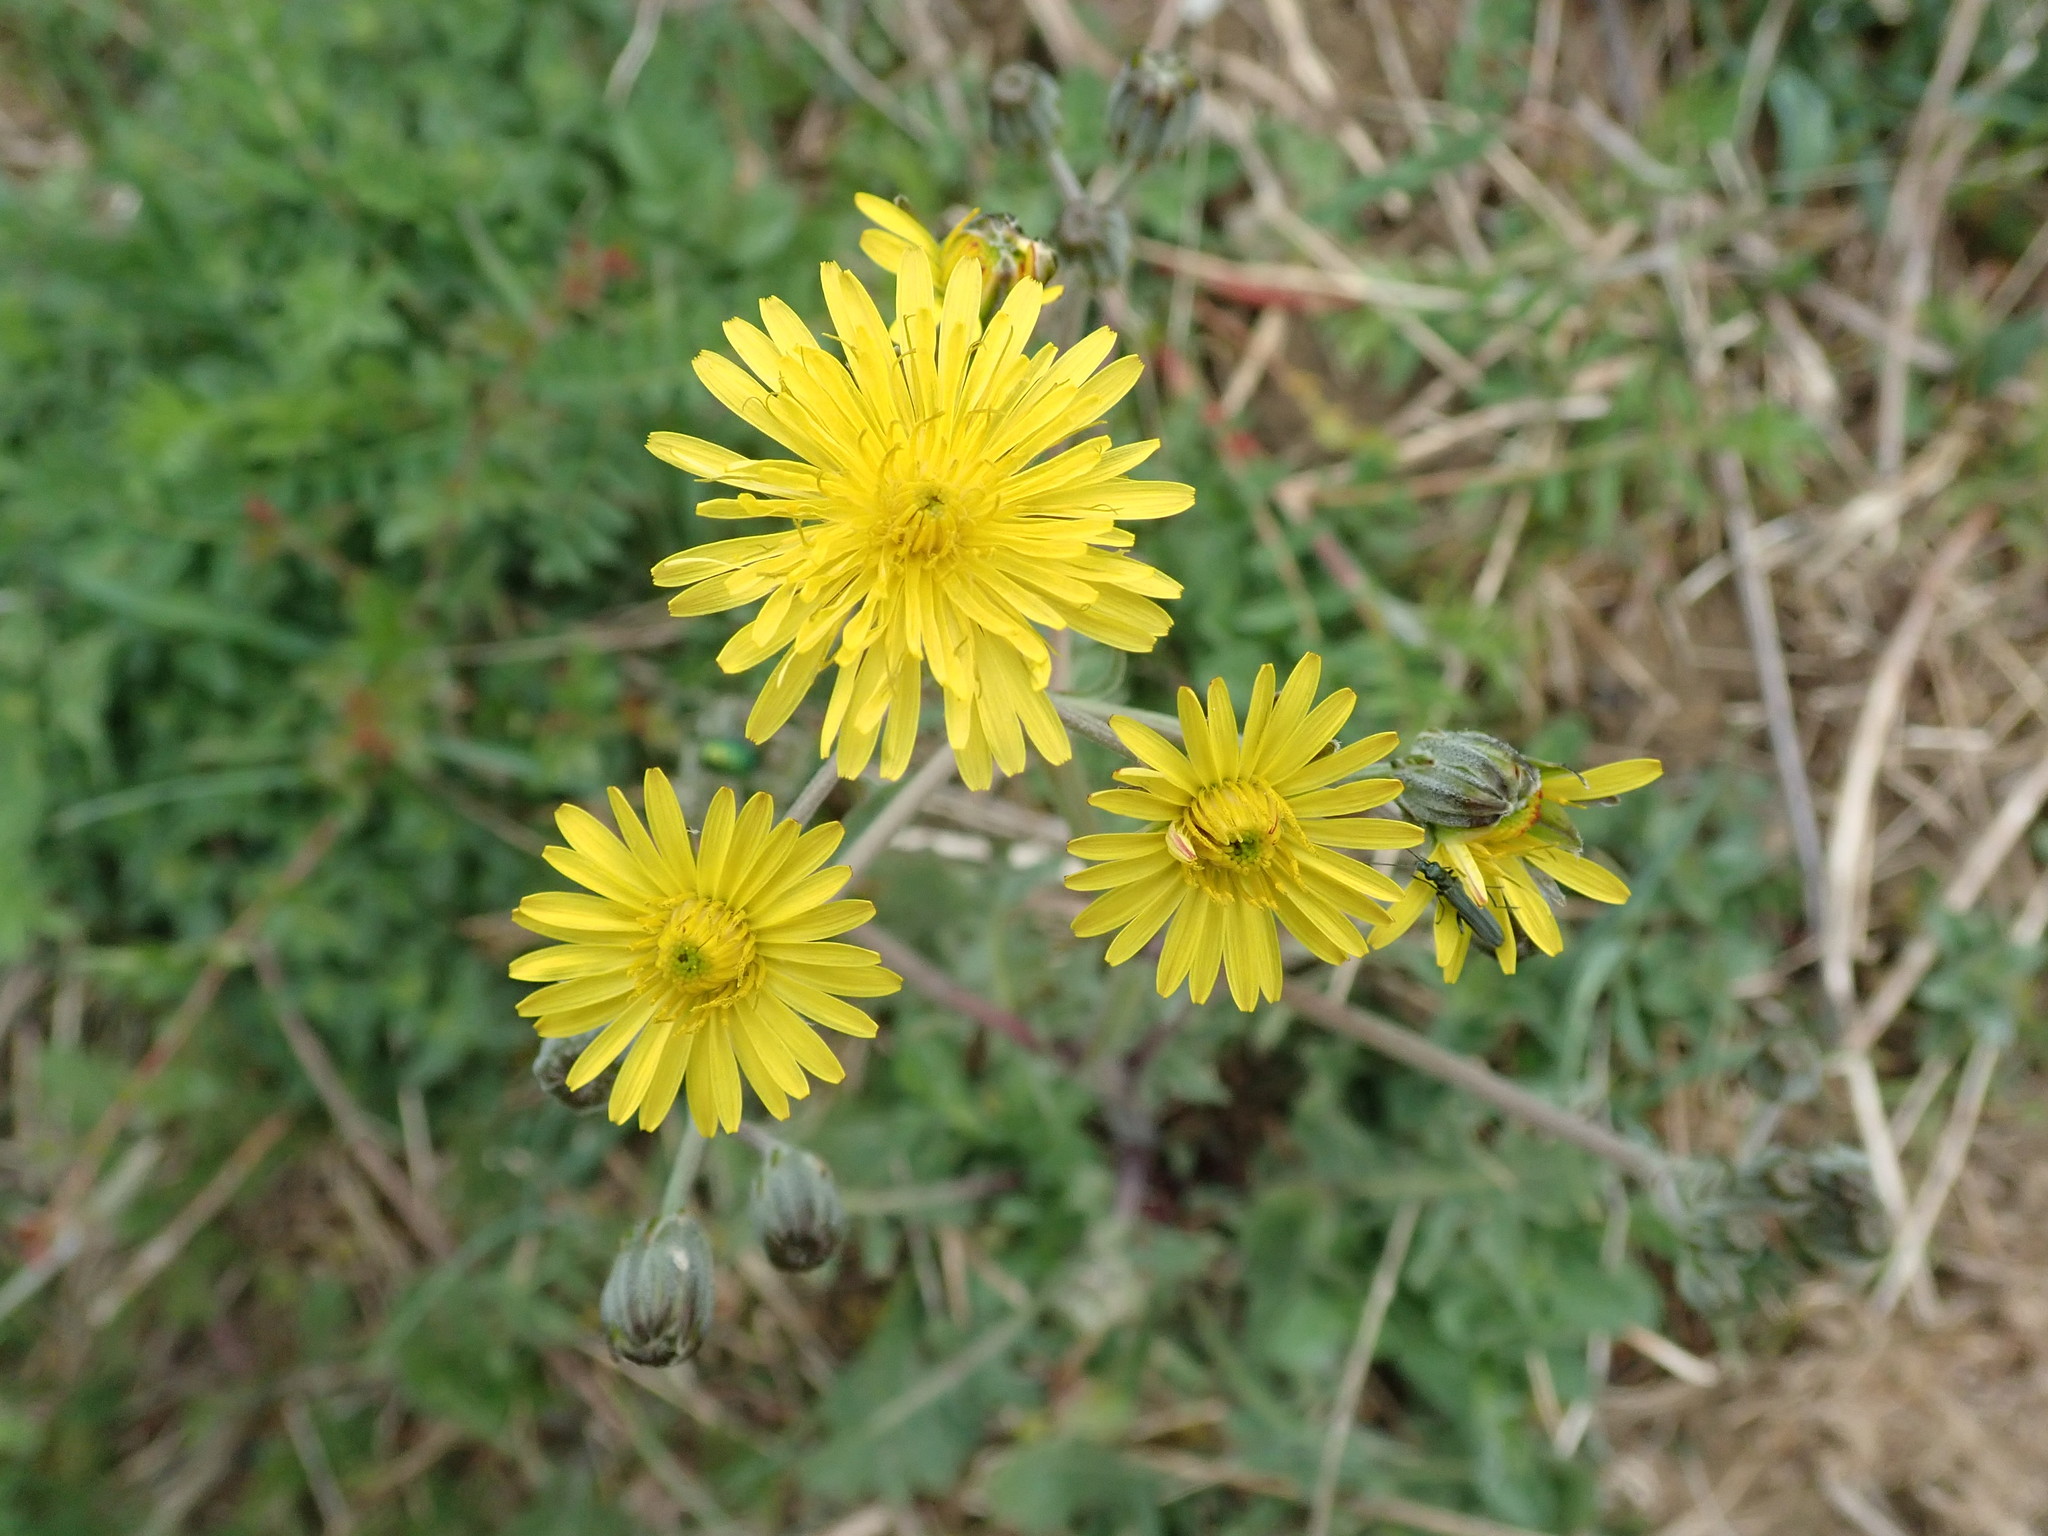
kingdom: Plantae
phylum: Tracheophyta
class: Magnoliopsida
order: Asterales
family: Asteraceae
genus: Crepis
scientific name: Crepis vesicaria
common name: Beaked hawksbeard
